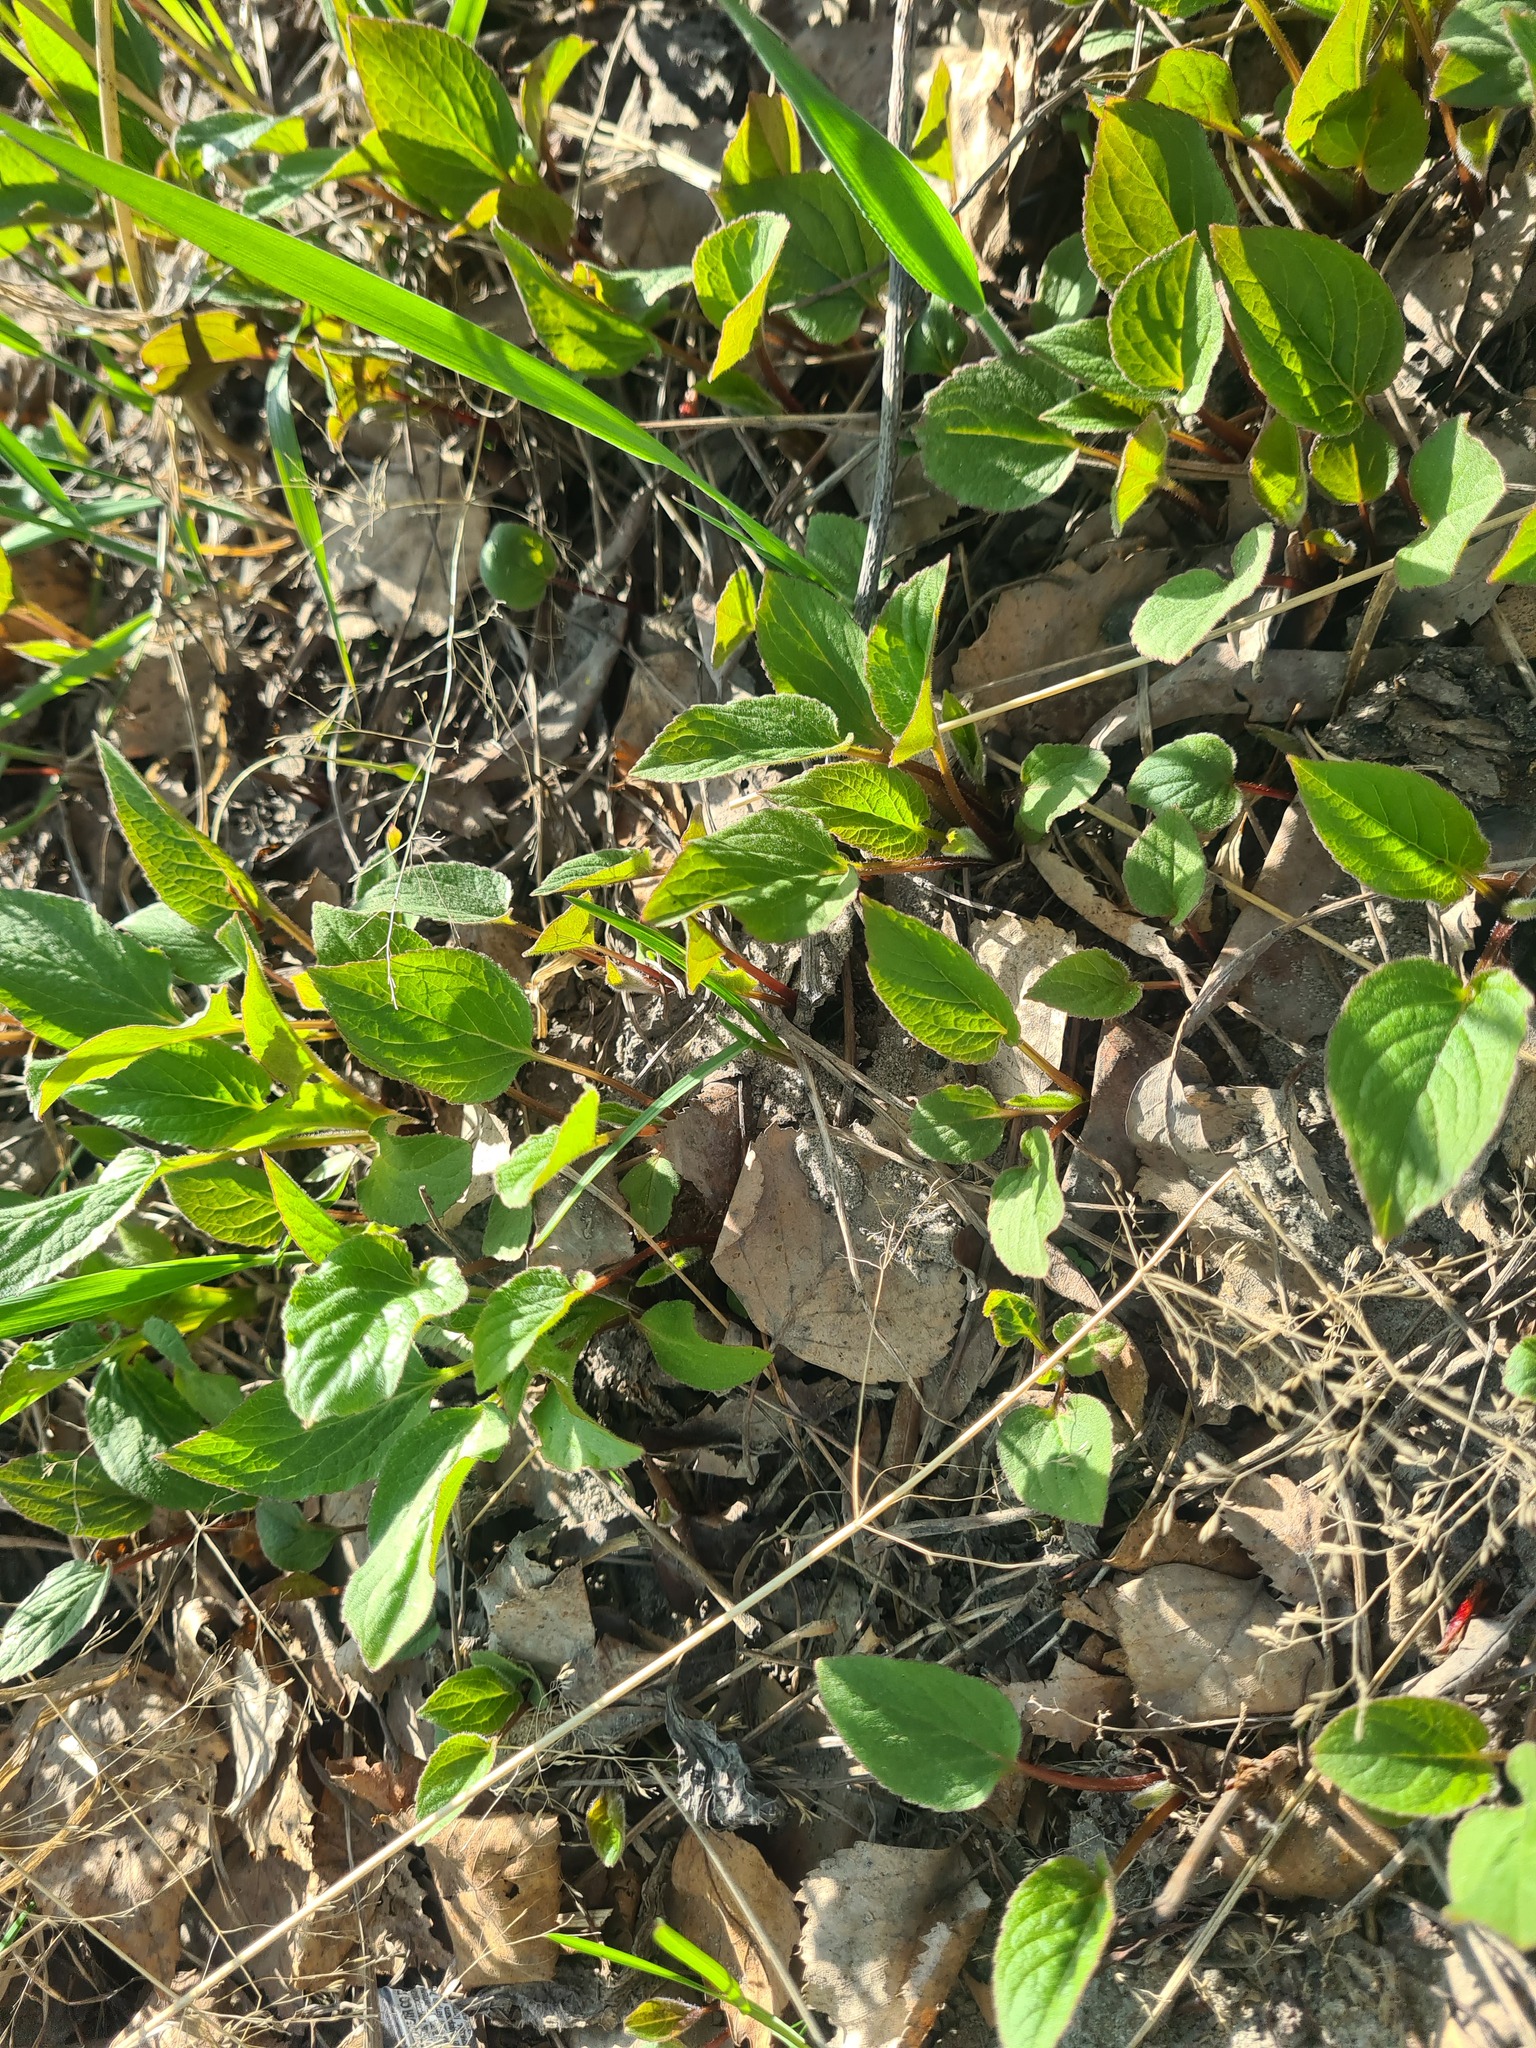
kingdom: Plantae
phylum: Tracheophyta
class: Magnoliopsida
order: Asterales
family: Campanulaceae
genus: Campanula
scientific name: Campanula rapunculoides
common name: Creeping bellflower
